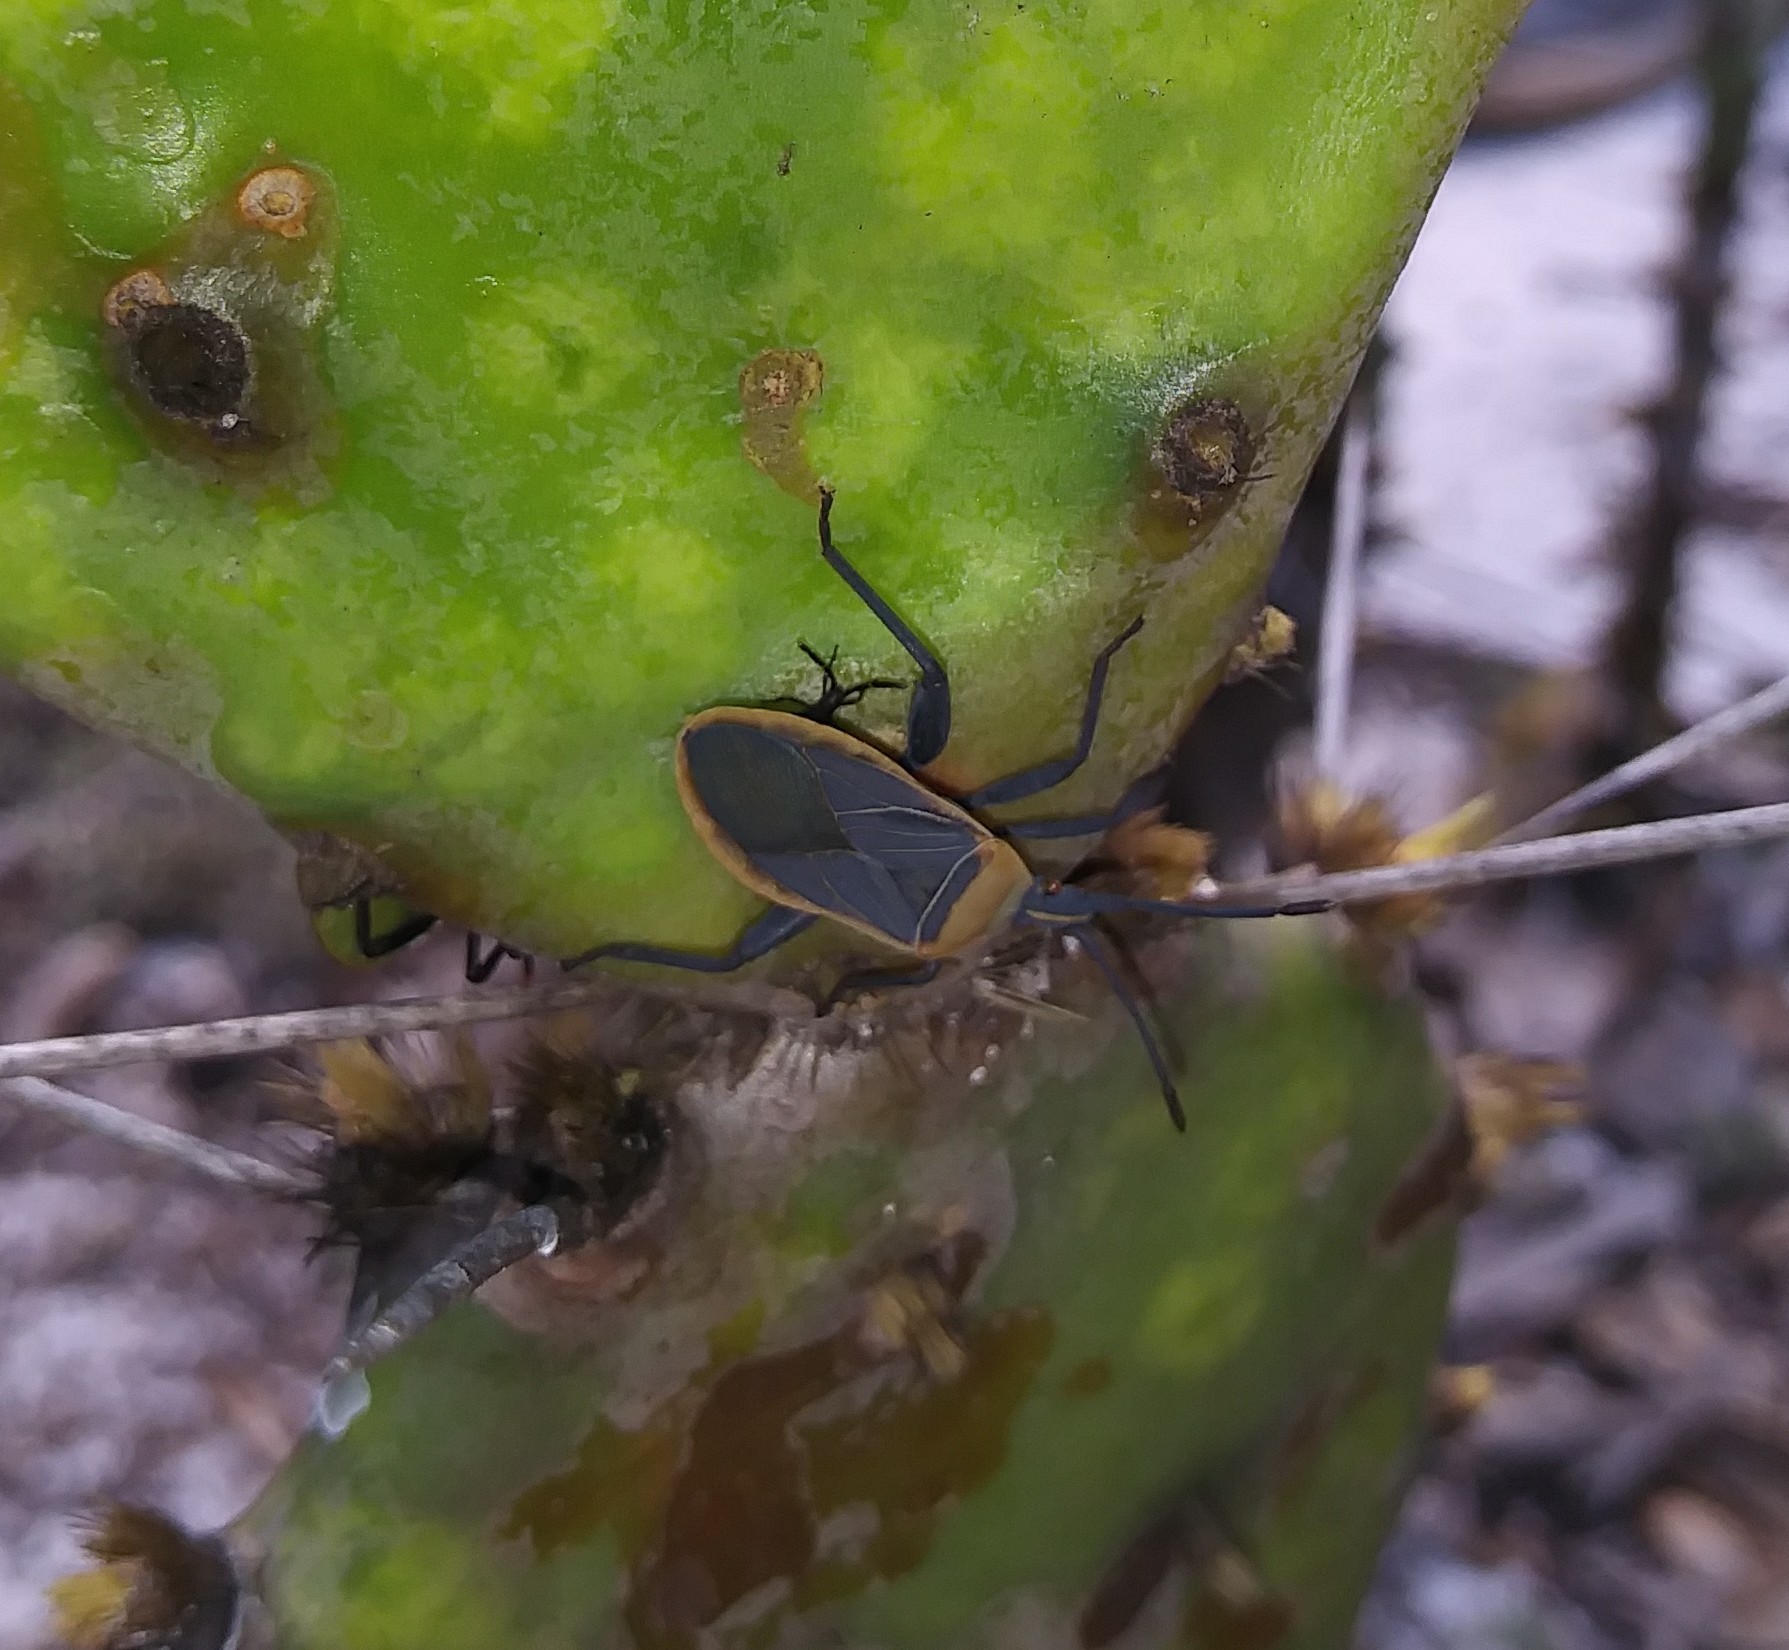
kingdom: Animalia
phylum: Arthropoda
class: Insecta
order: Hemiptera
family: Coreidae
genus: Chelinidea
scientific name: Chelinidea vittiger
